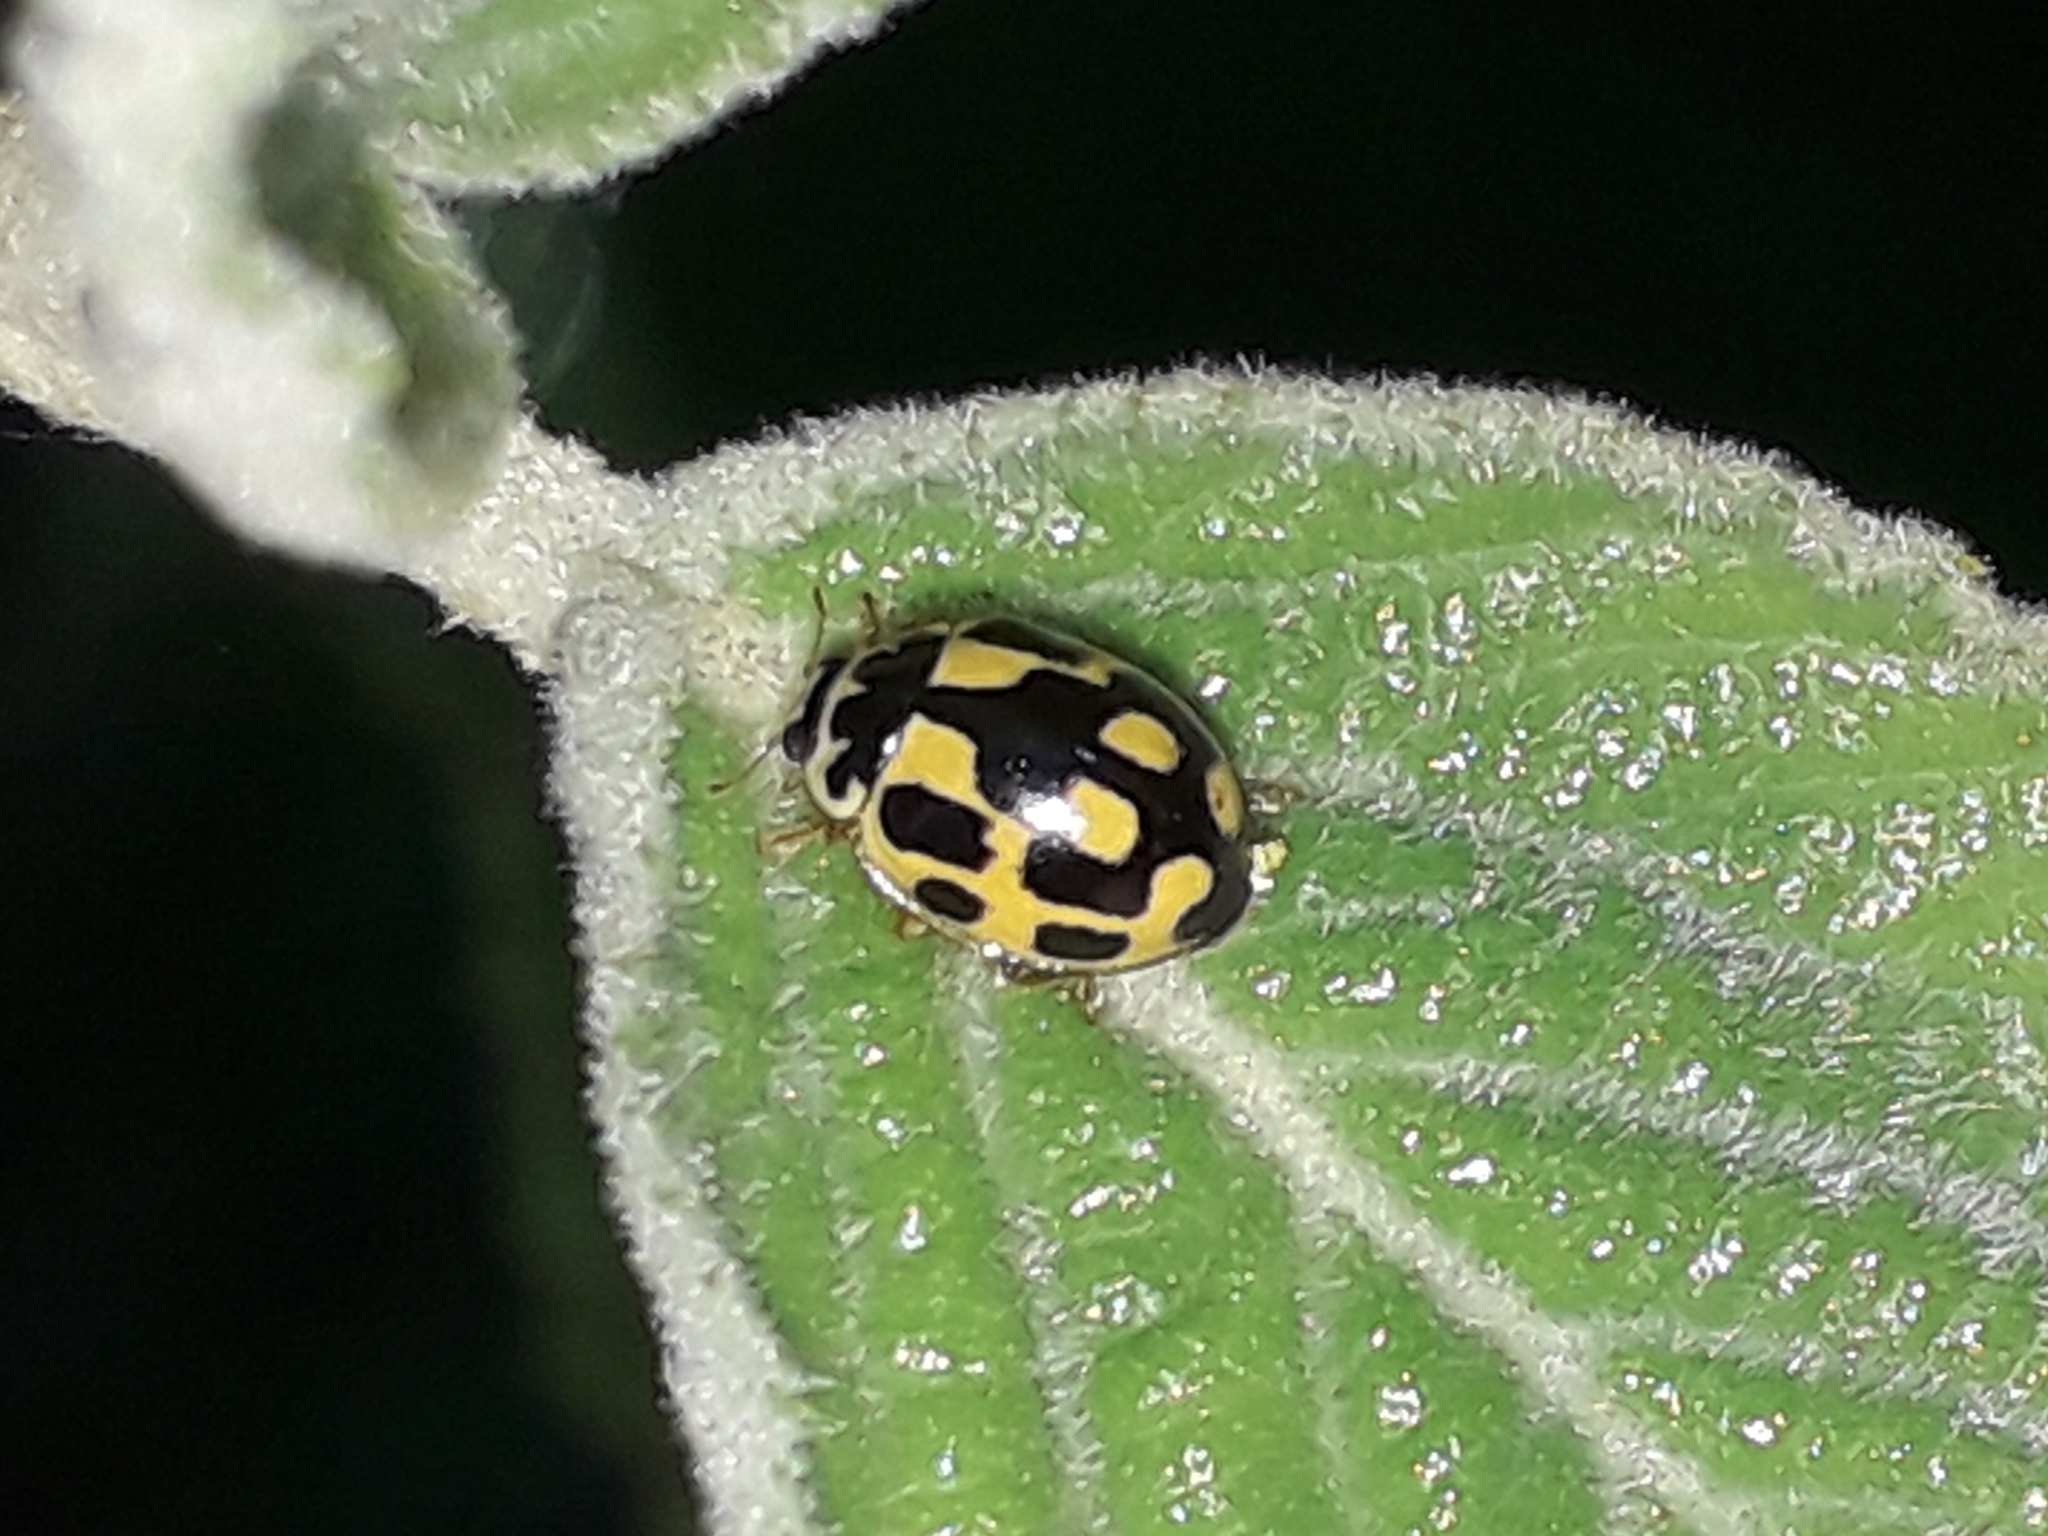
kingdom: Animalia
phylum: Arthropoda
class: Insecta
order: Coleoptera
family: Coccinellidae
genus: Propylaea
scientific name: Propylaea quatuordecimpunctata
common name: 14-spotted ladybird beetle
